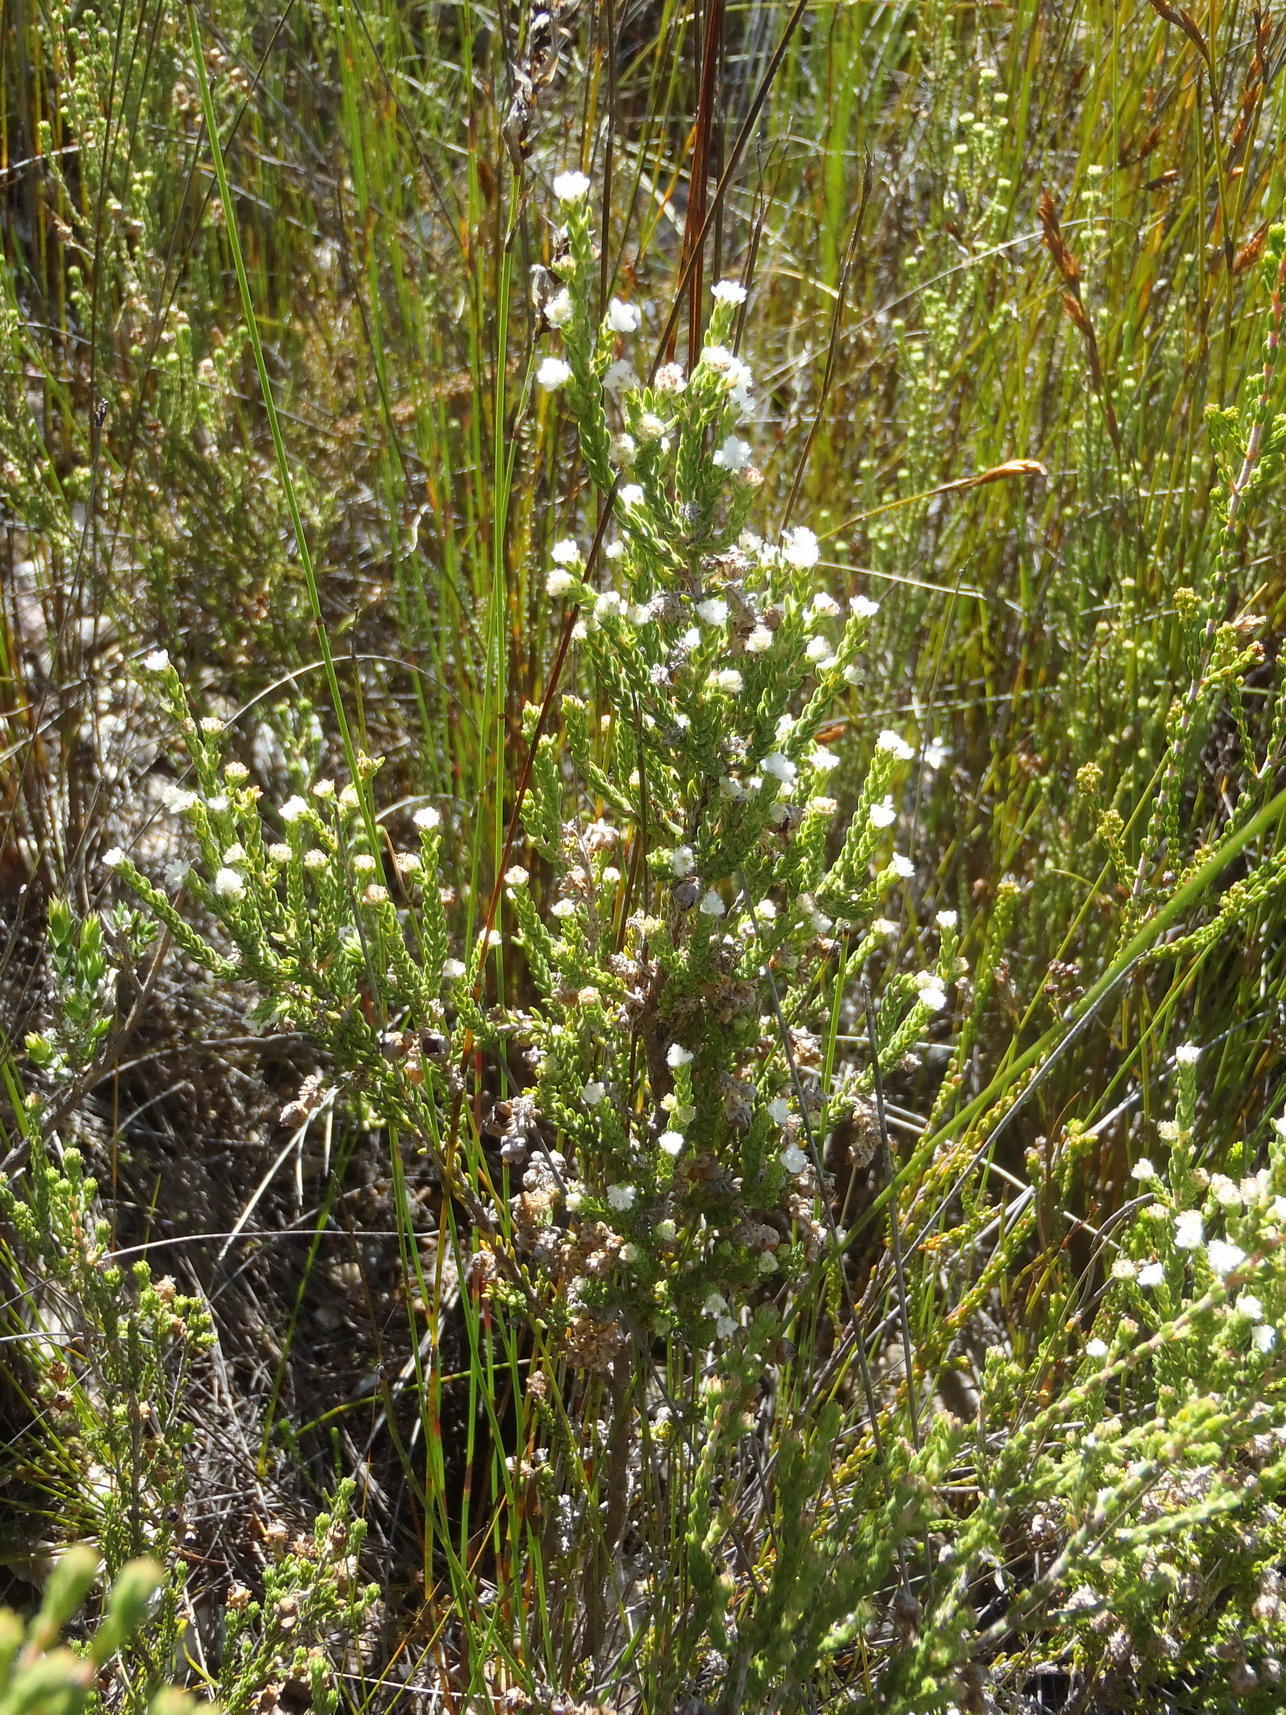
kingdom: Plantae
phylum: Tracheophyta
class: Magnoliopsida
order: Ericales
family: Ericaceae
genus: Erica
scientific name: Erica fimbriata
